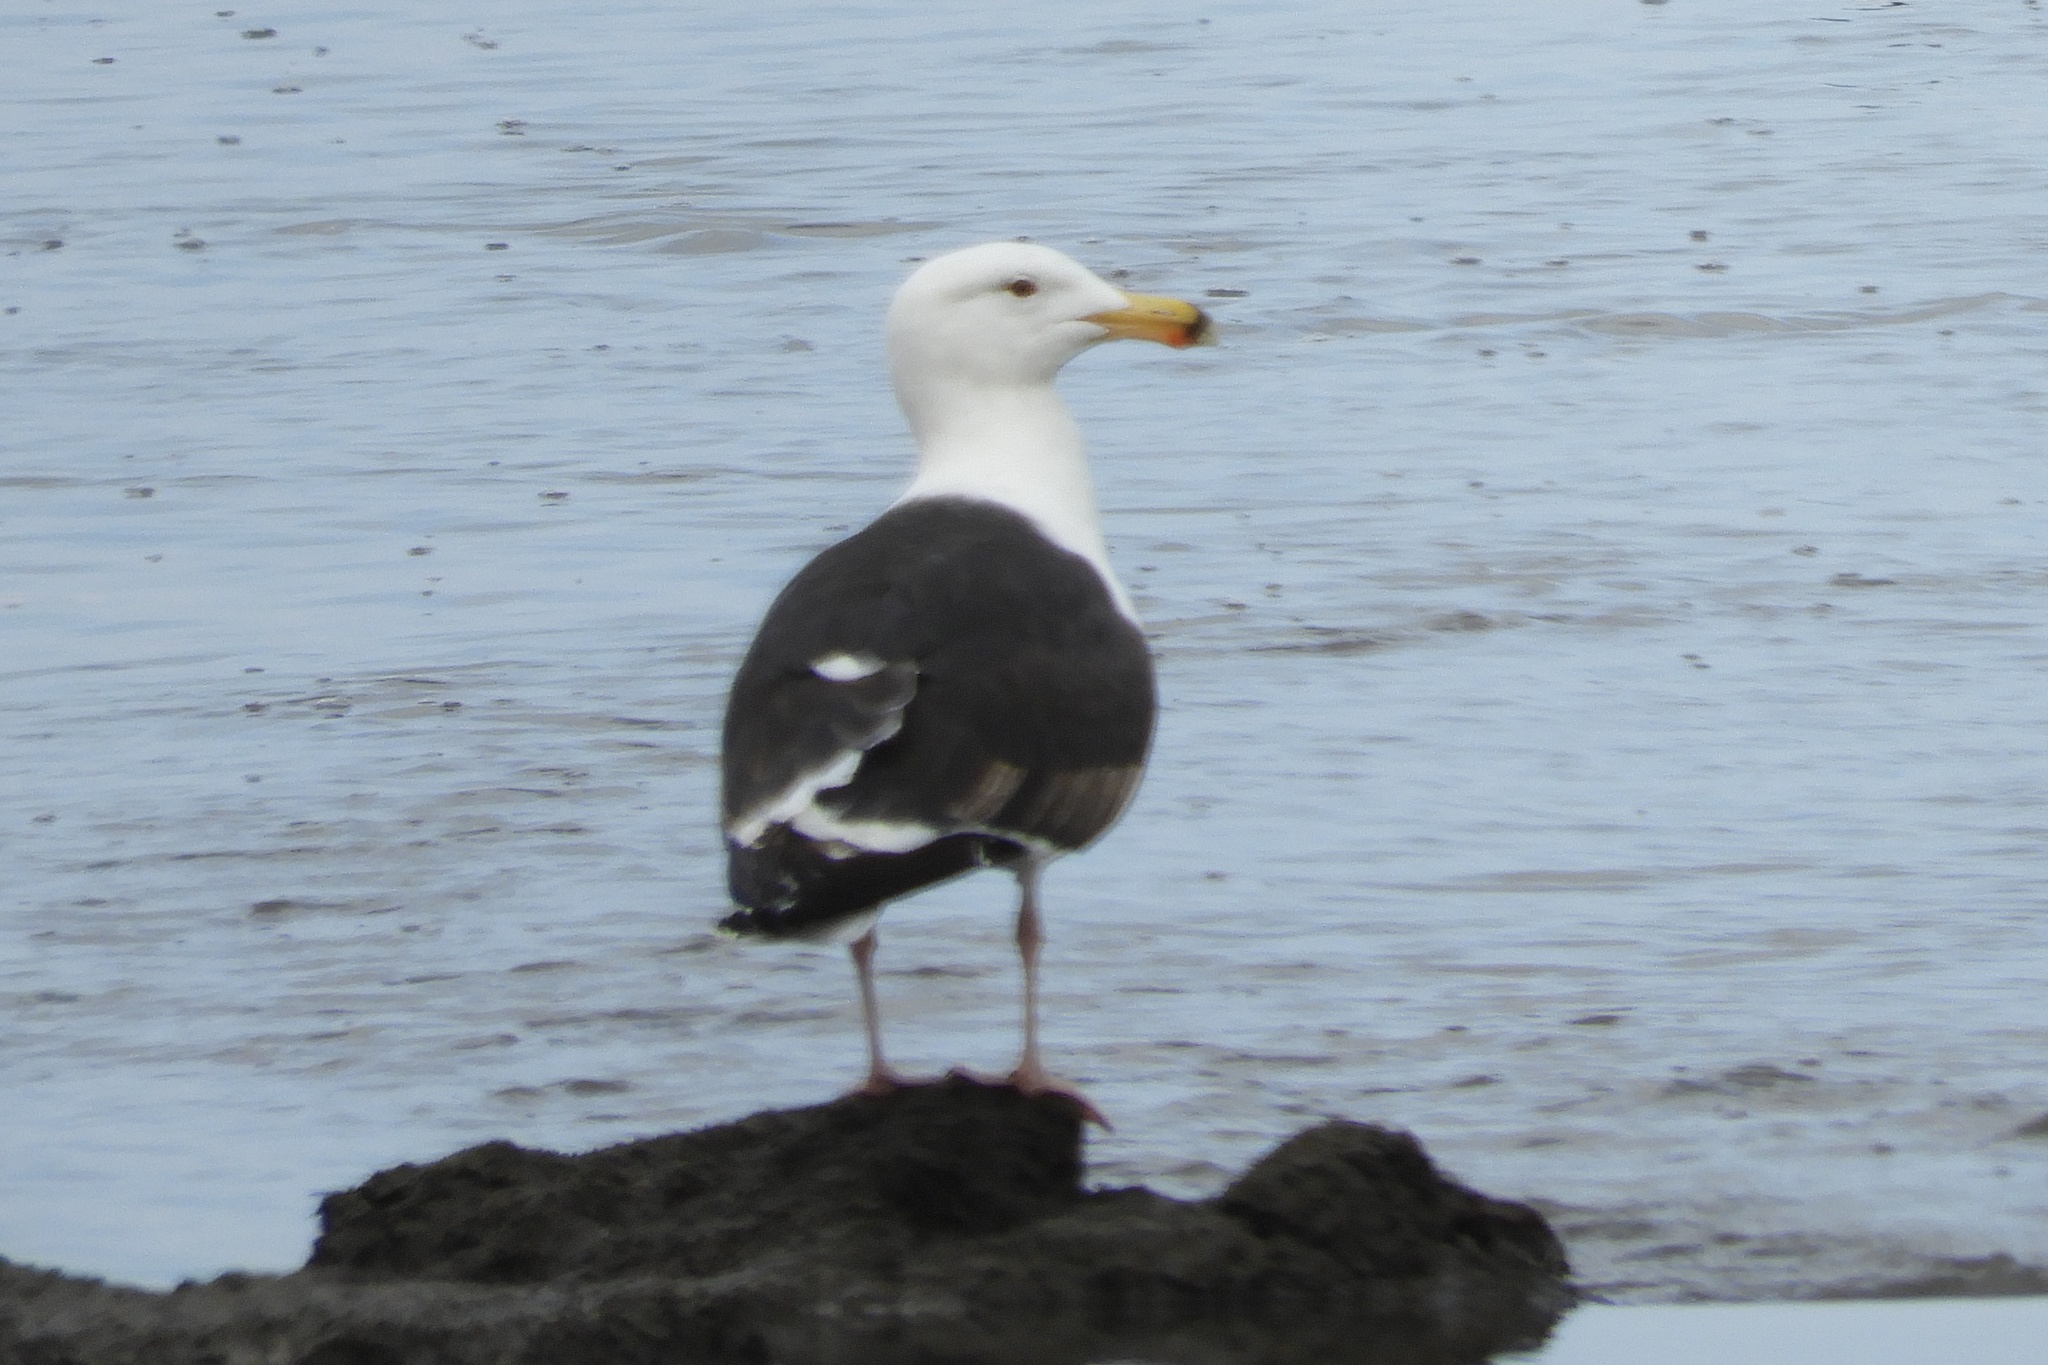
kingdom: Animalia
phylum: Chordata
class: Aves
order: Charadriiformes
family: Laridae
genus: Larus
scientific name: Larus marinus
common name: Great black-backed gull
